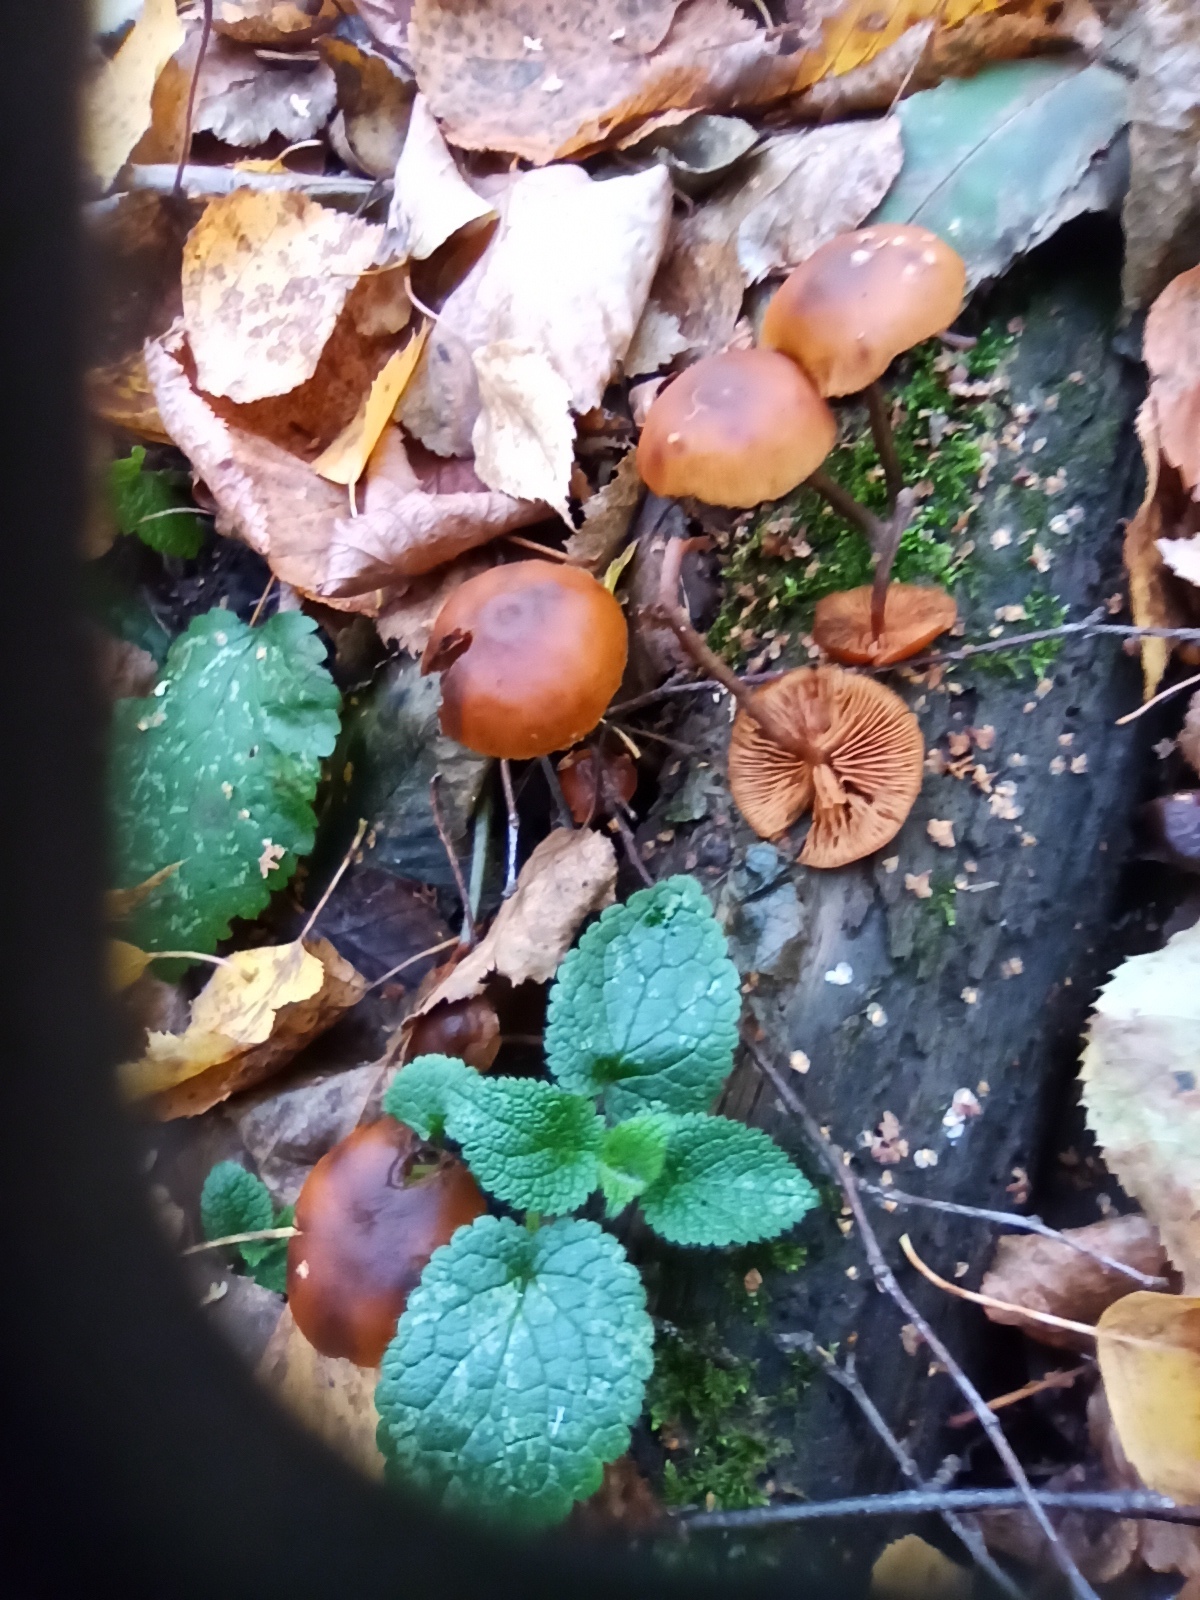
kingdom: Fungi
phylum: Basidiomycota
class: Agaricomycetes
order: Agaricales
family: Hymenogastraceae
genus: Galerina
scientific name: Galerina marginata
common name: Funeral bell
